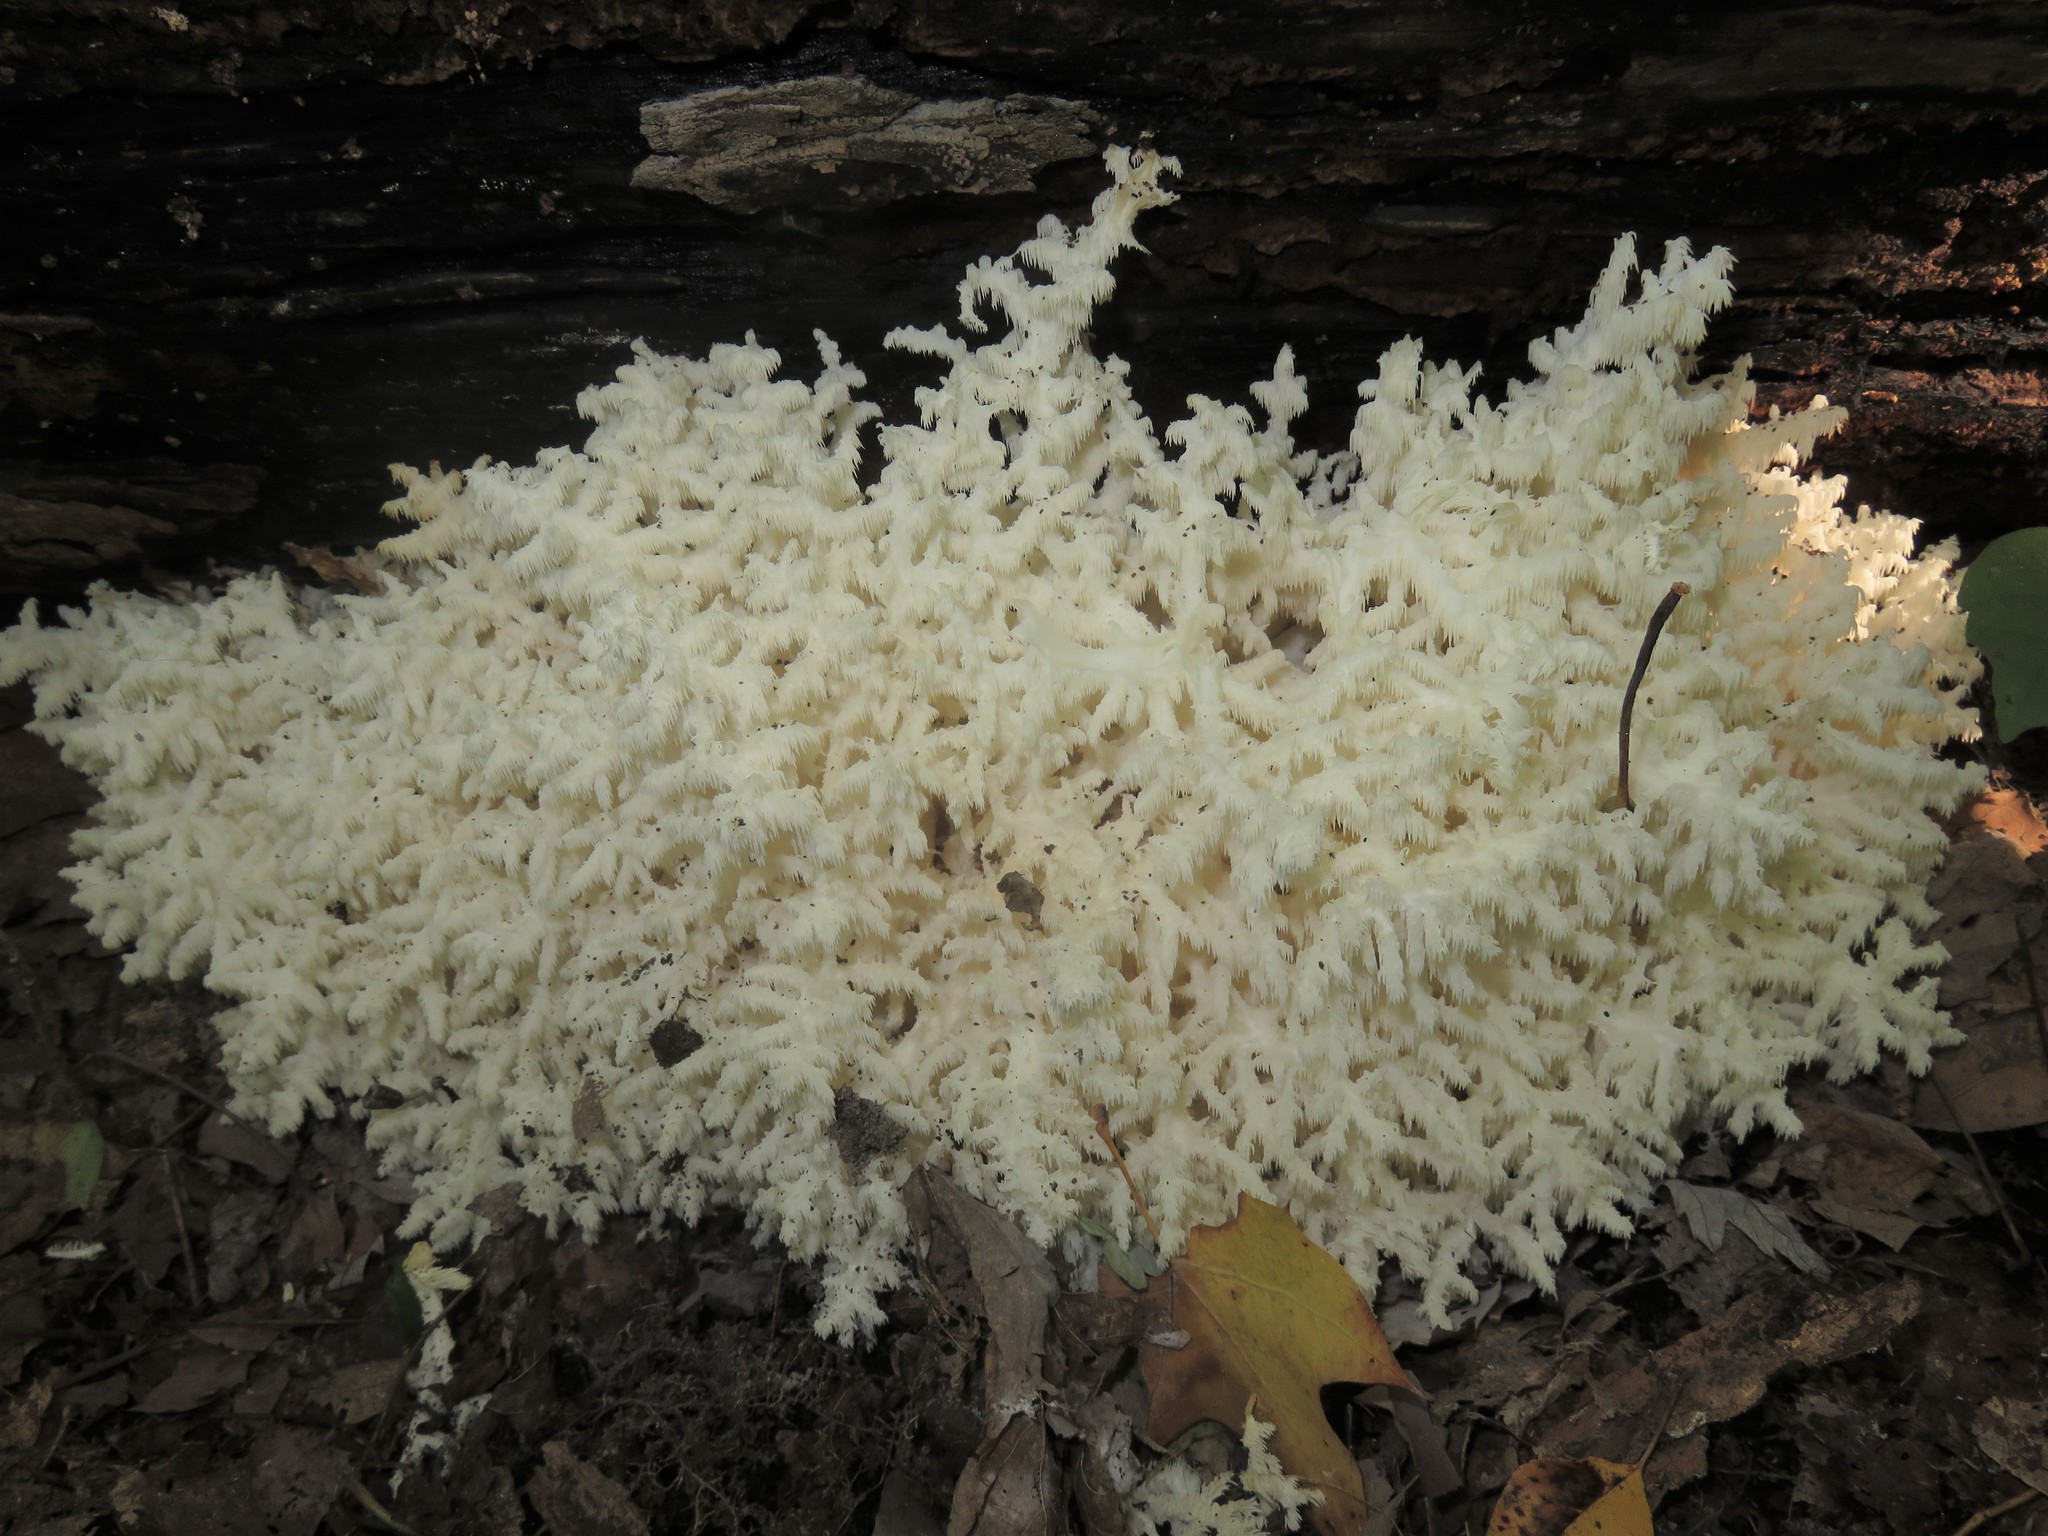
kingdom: Fungi
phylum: Basidiomycota
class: Agaricomycetes
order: Russulales
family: Hericiaceae
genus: Hericium
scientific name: Hericium coralloides
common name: Coral tooth
